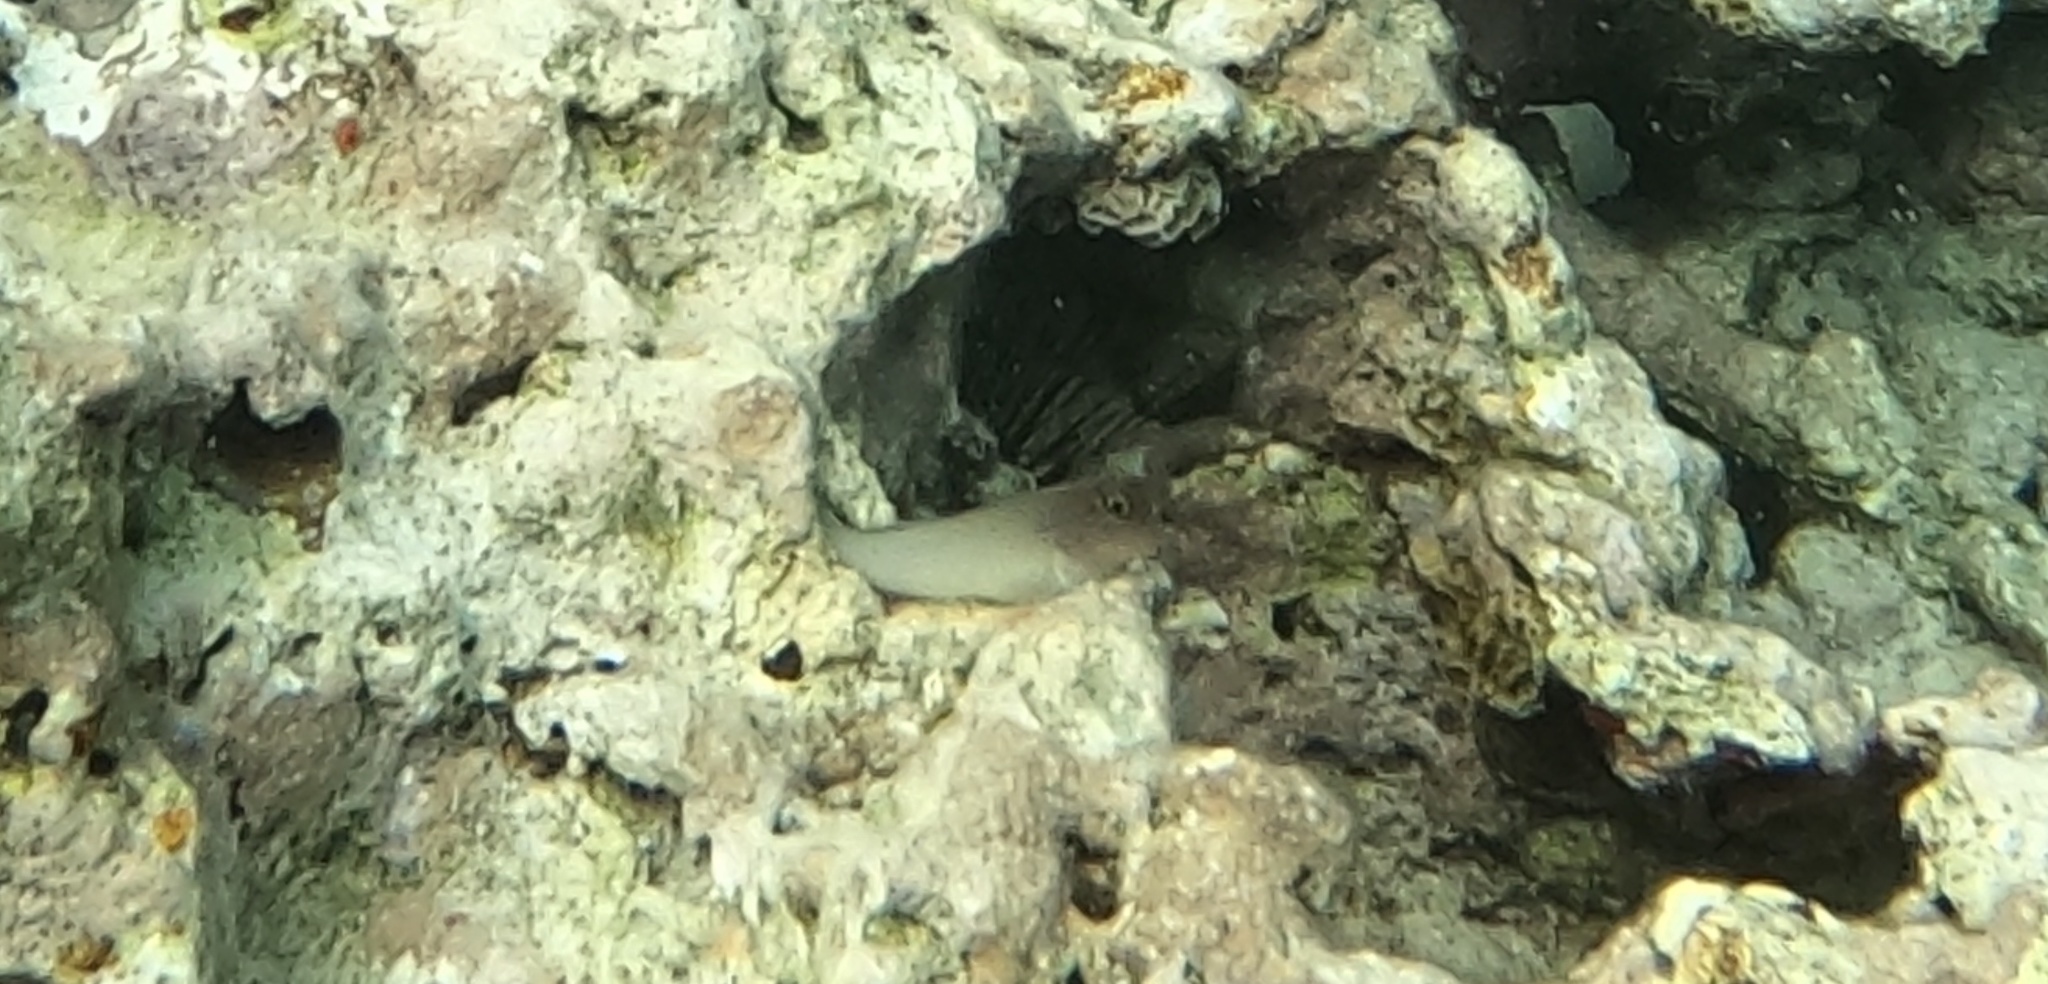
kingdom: Animalia
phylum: Chordata
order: Perciformes
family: Blenniidae
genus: Ophioblennius
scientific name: Ophioblennius macclurei
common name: Redlip blenny
